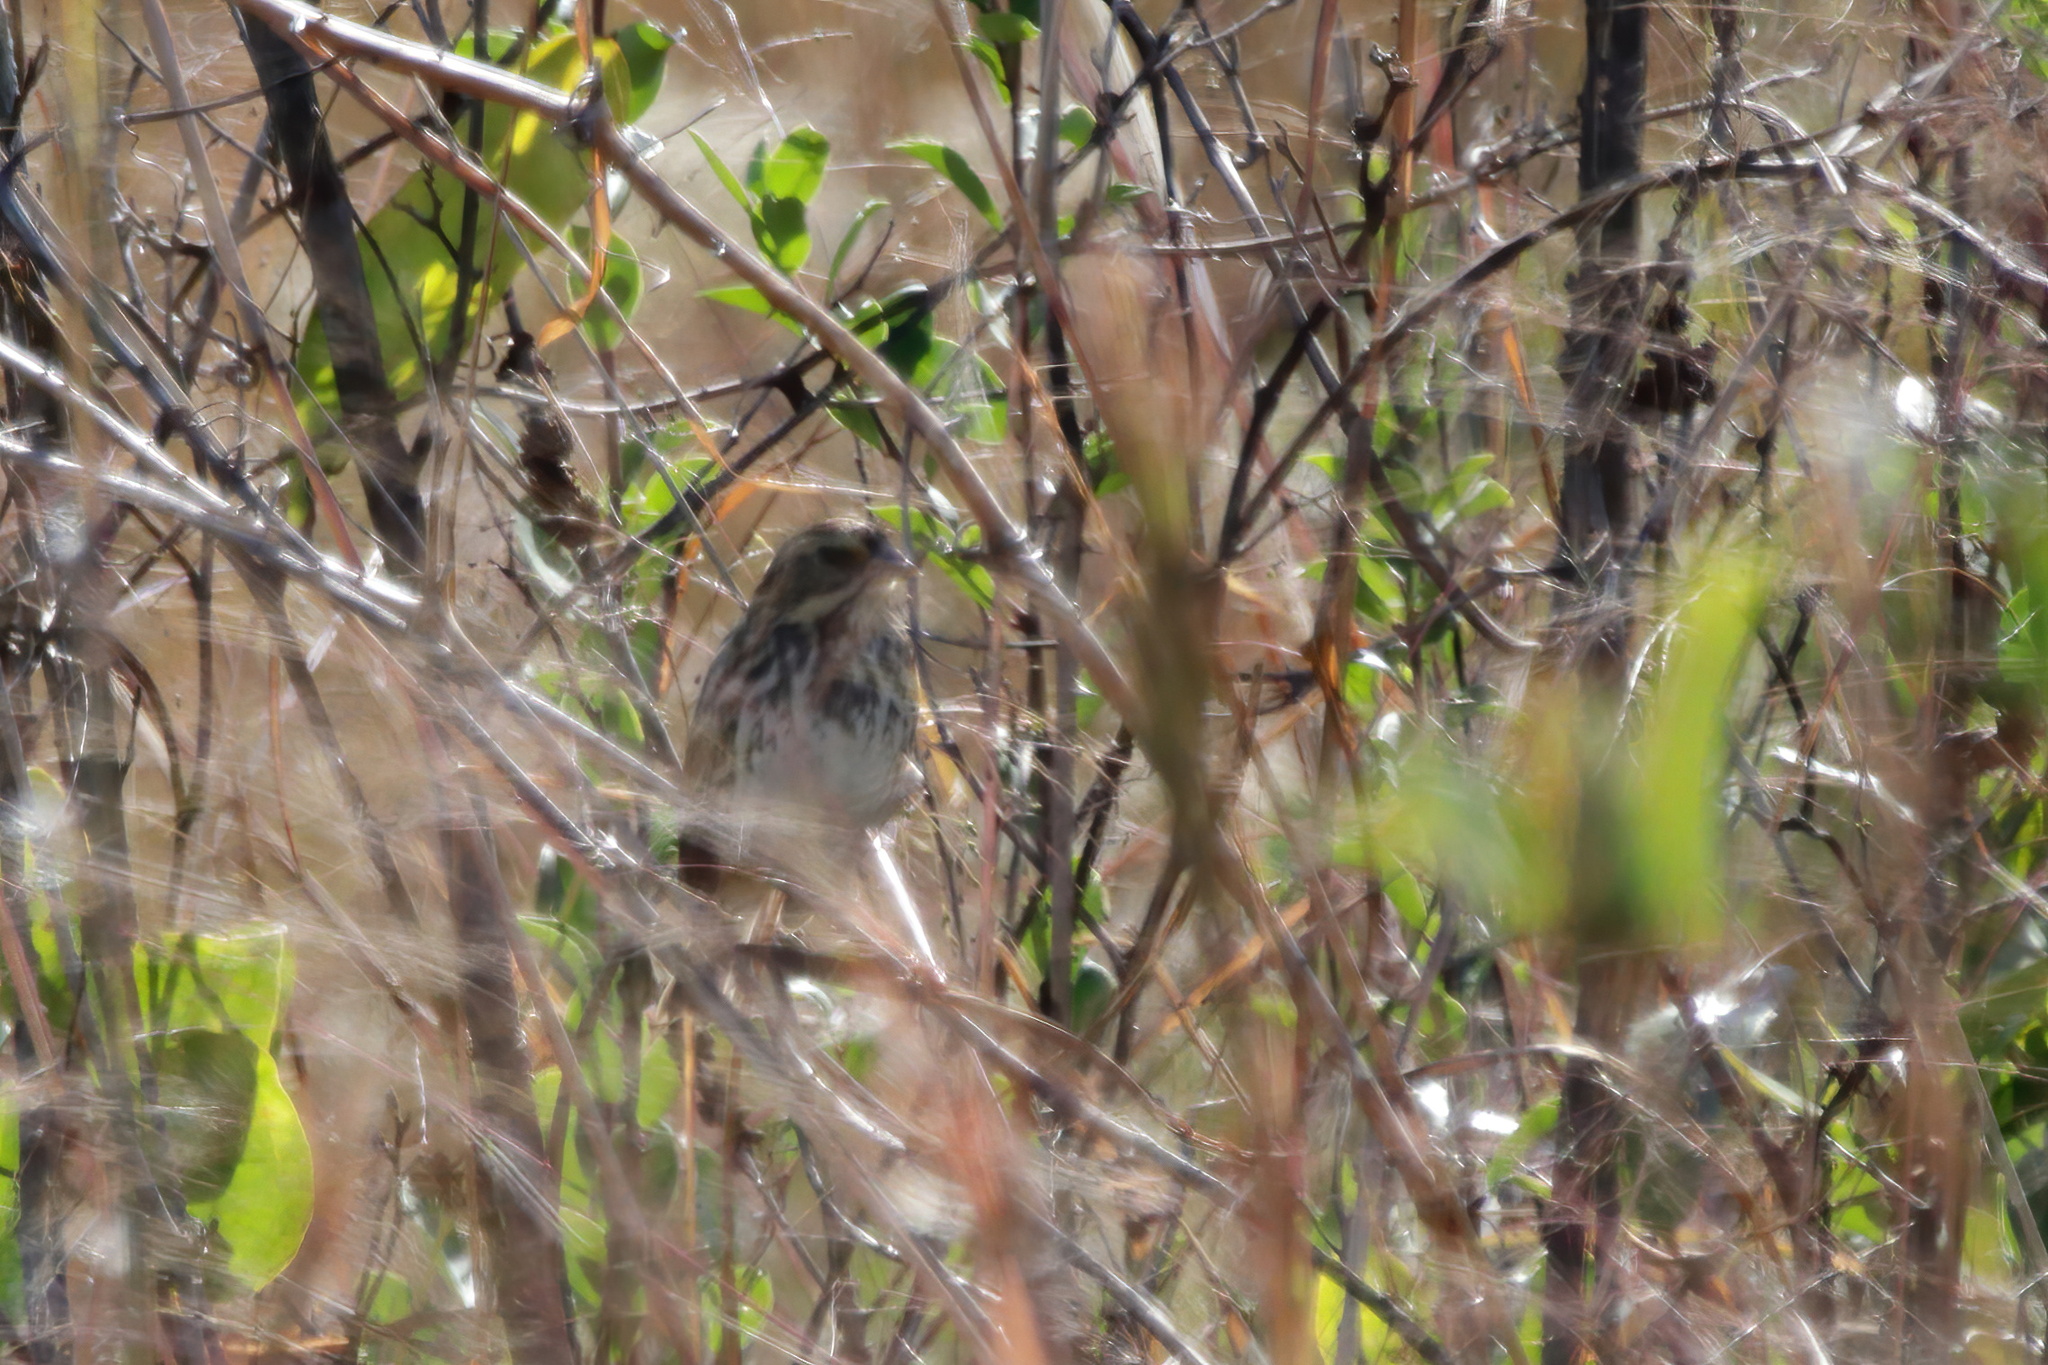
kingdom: Animalia
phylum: Chordata
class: Aves
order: Passeriformes
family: Passerellidae
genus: Passerculus
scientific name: Passerculus sandwichensis
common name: Savannah sparrow
